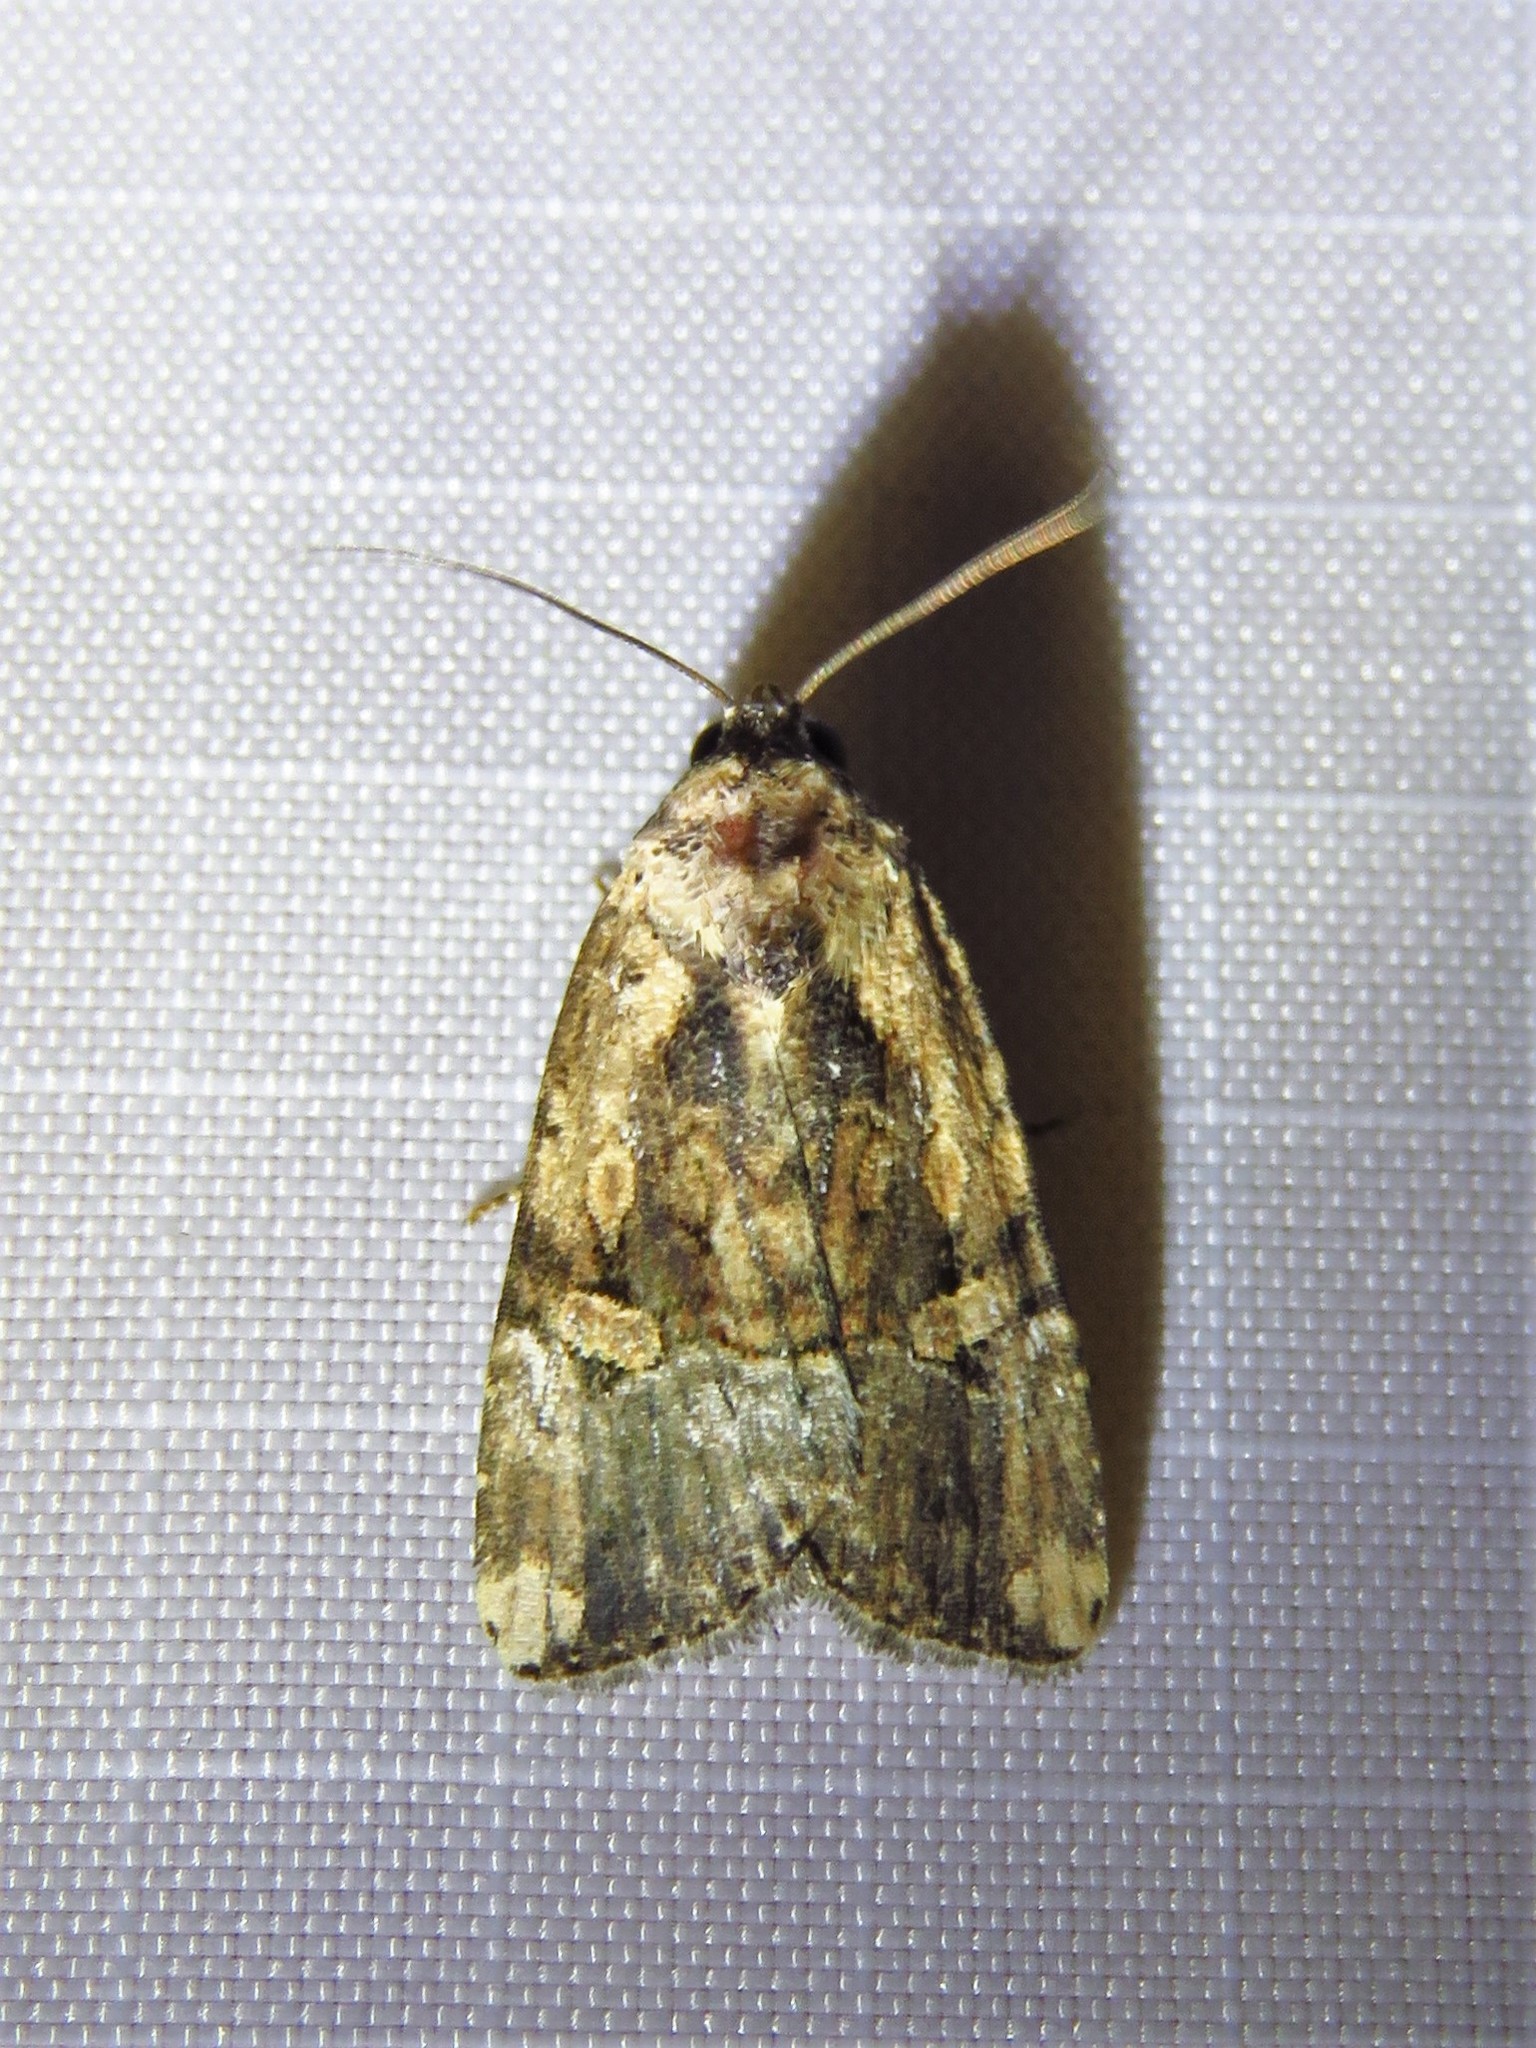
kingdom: Animalia
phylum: Arthropoda
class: Insecta
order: Lepidoptera
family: Noctuidae
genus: Elaphria
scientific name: Elaphria chalcedonia
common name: Chalcedony midget
